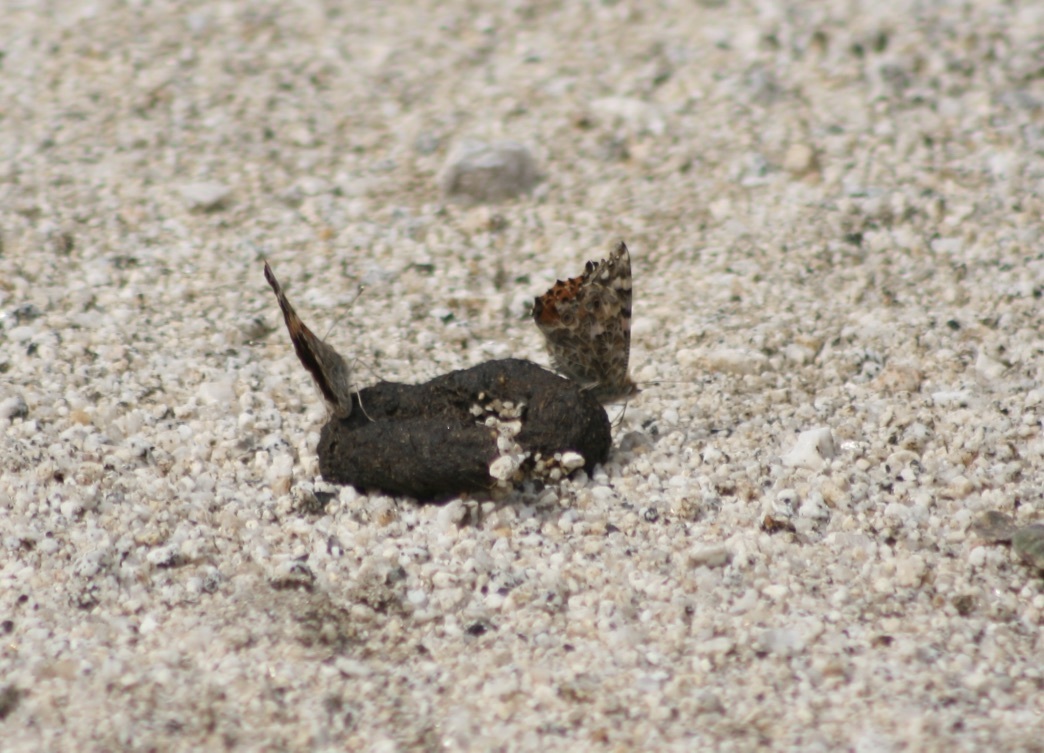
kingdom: Animalia
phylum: Arthropoda
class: Insecta
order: Lepidoptera
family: Nymphalidae
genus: Vanessa
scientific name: Vanessa cardui
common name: Painted lady
